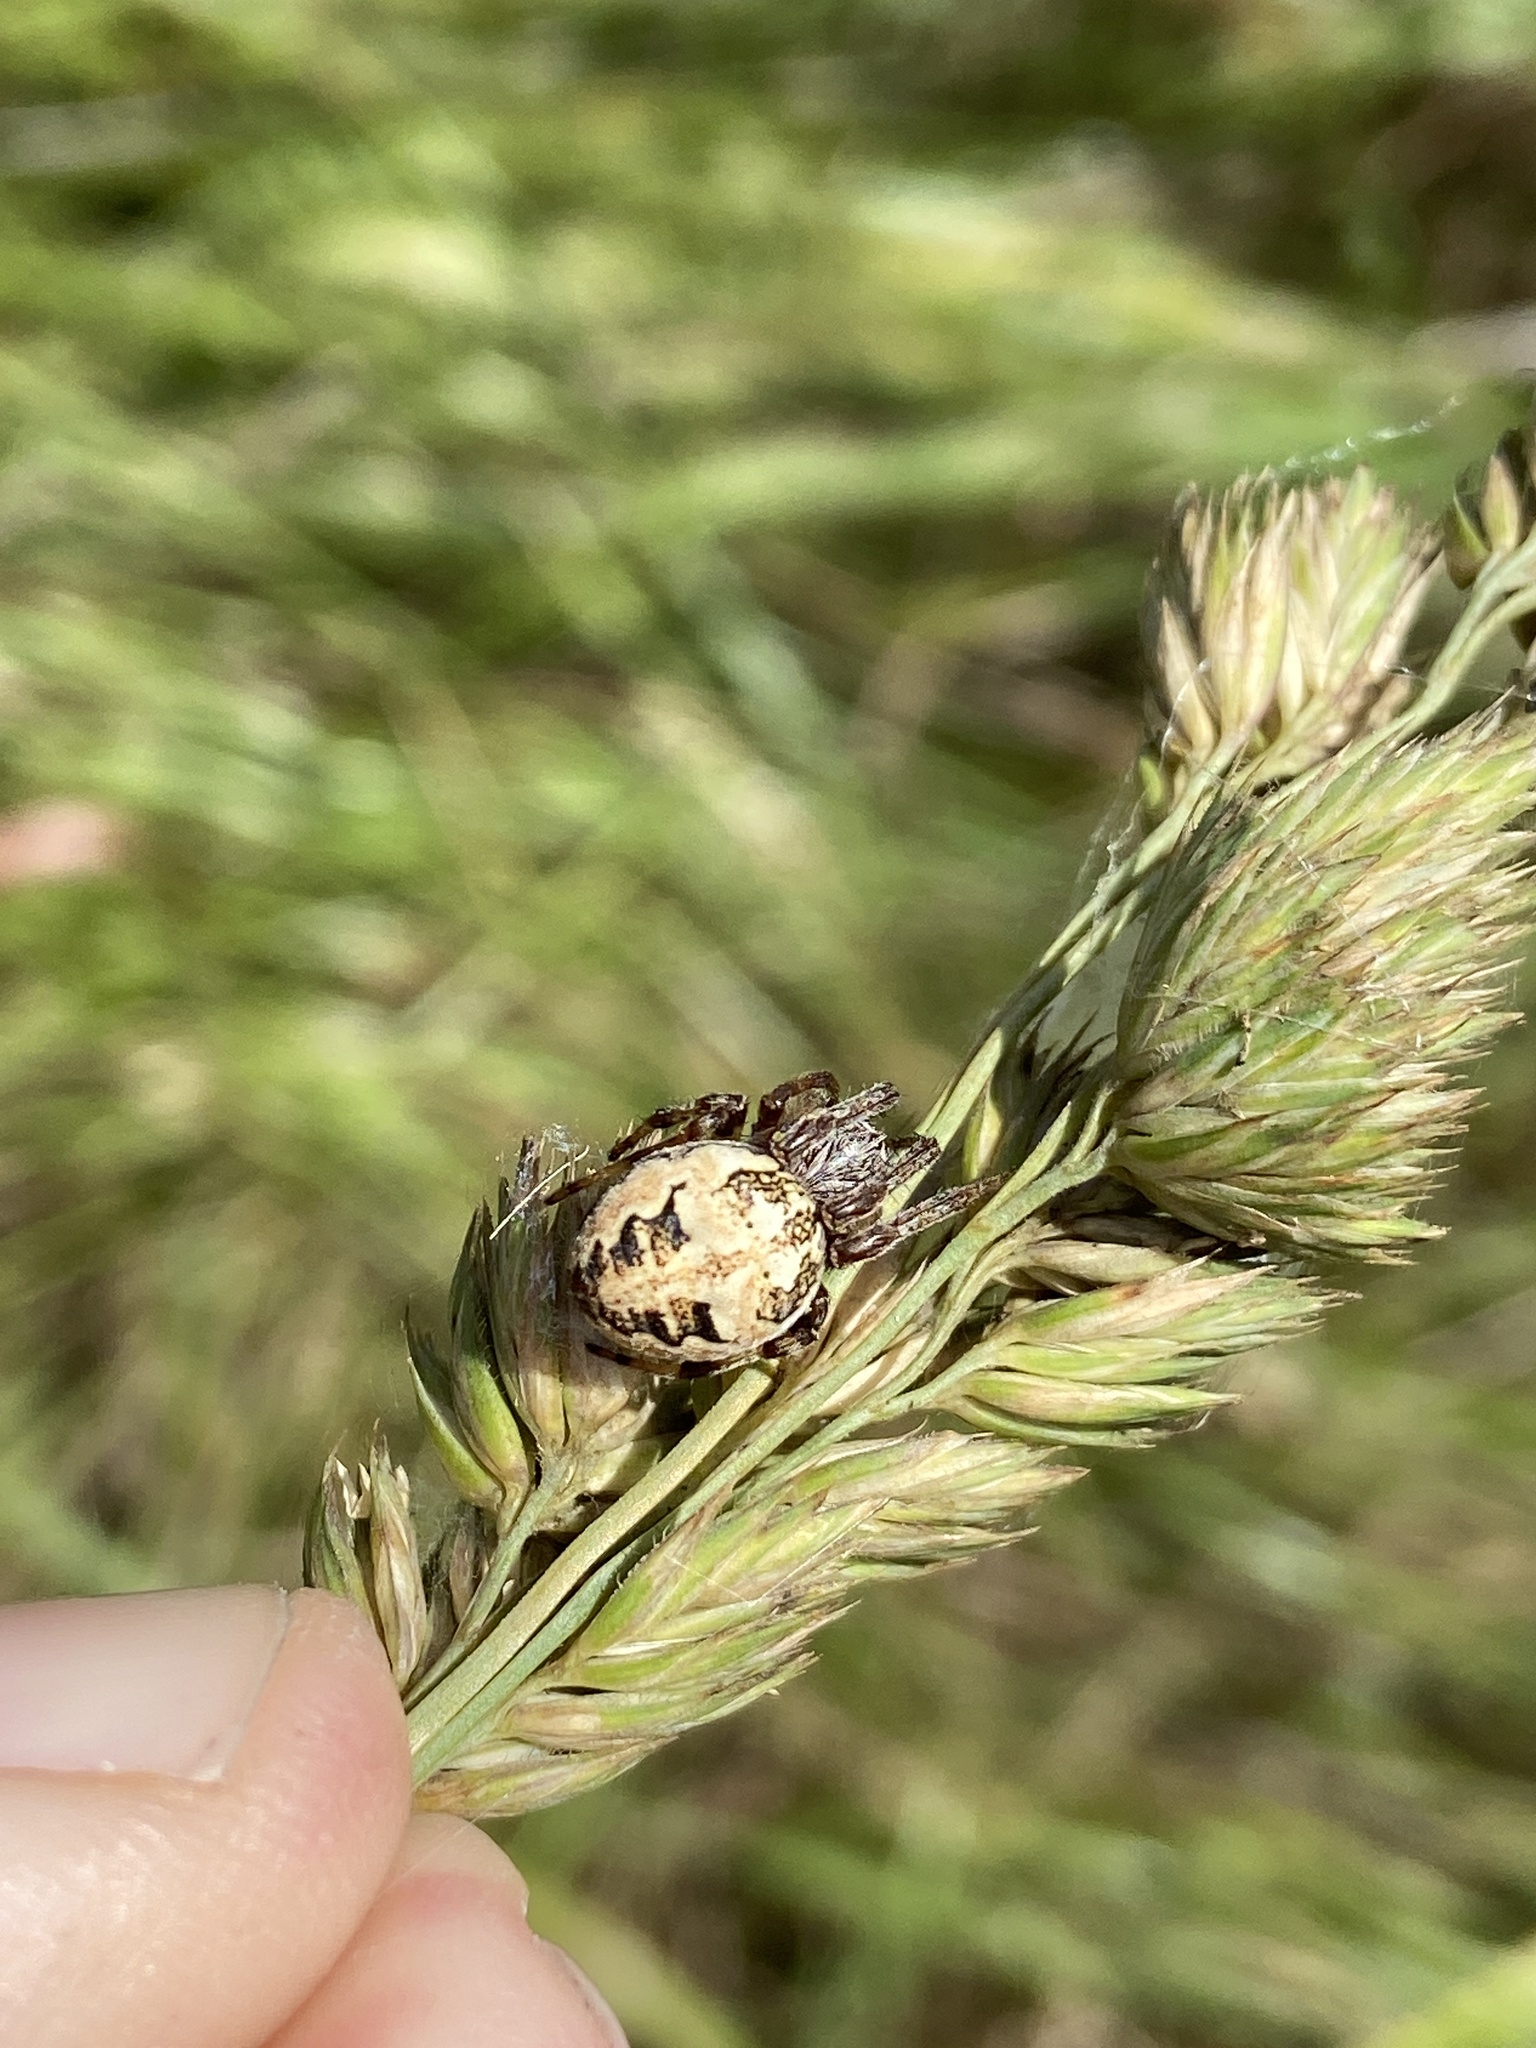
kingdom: Animalia
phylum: Arthropoda
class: Arachnida
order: Araneae
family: Araneidae
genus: Larinioides
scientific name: Larinioides cornutus
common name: Furrow orbweaver
